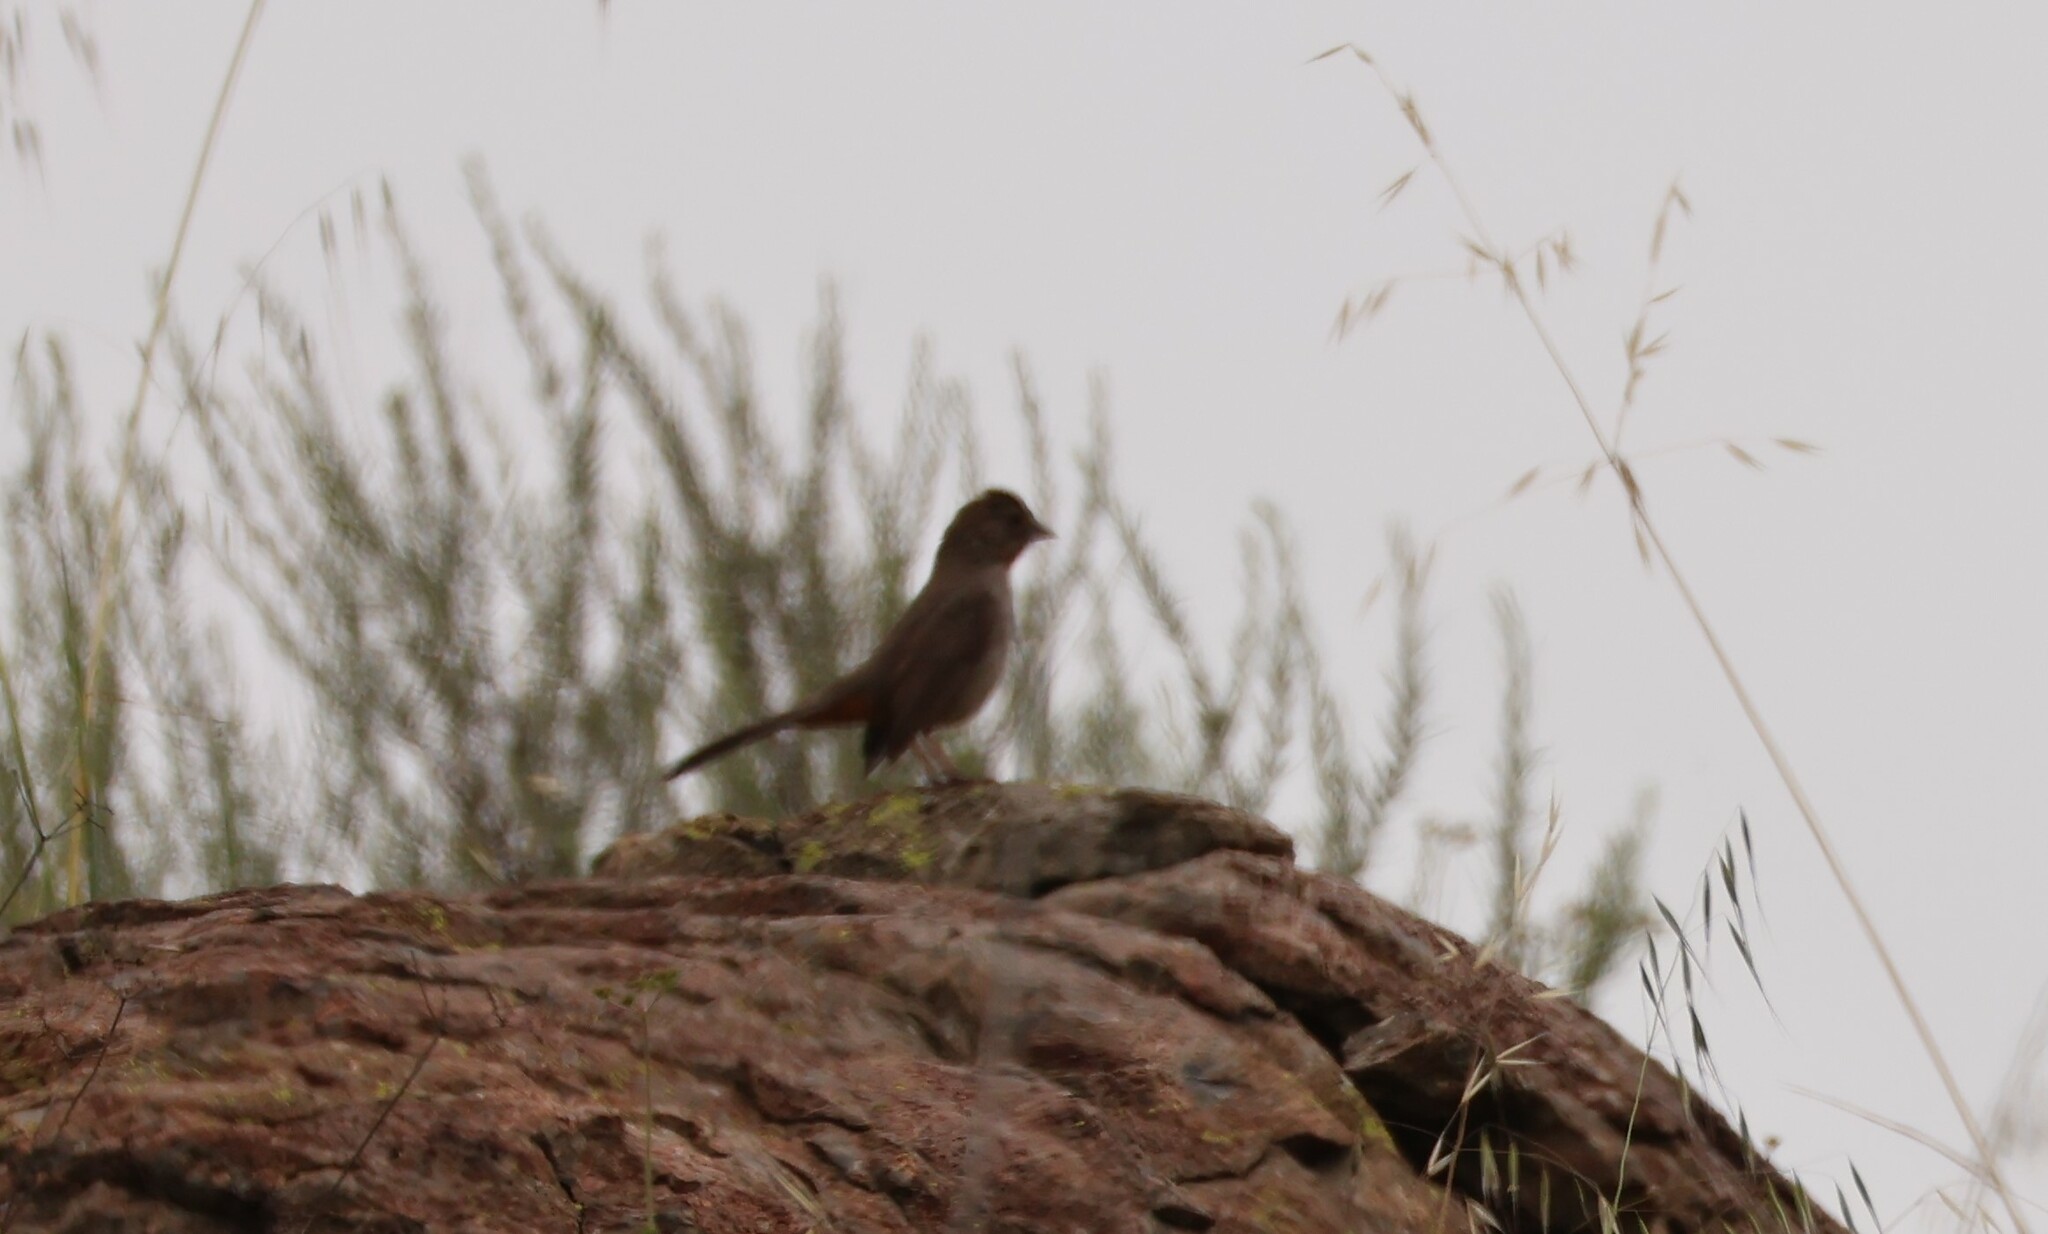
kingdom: Animalia
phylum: Chordata
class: Aves
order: Passeriformes
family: Passerellidae
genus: Melozone
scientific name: Melozone crissalis
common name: California towhee
